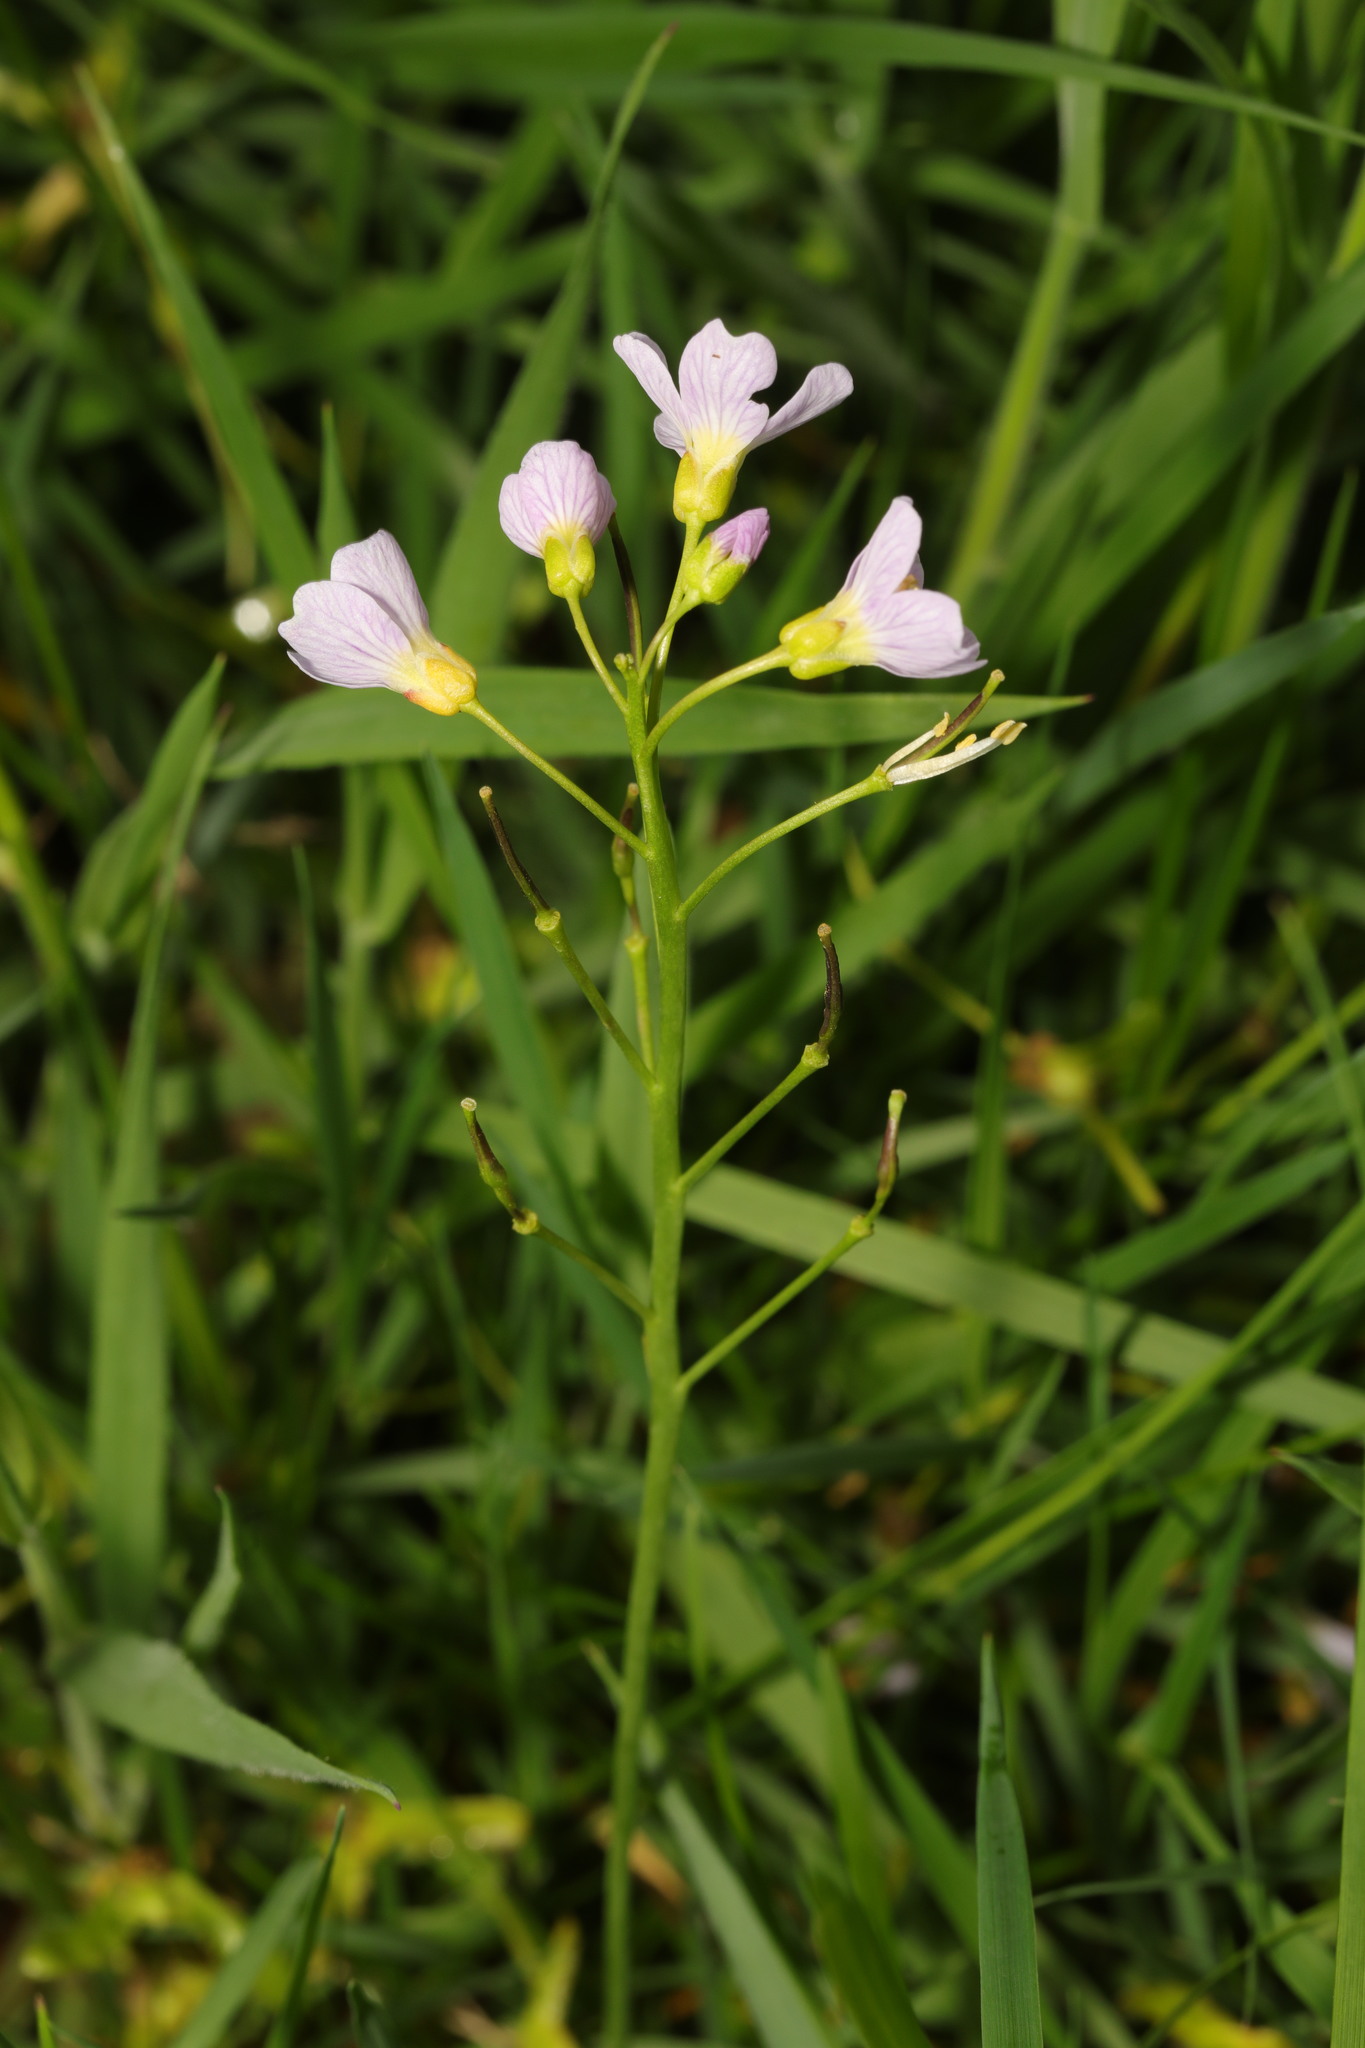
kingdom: Plantae
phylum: Tracheophyta
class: Magnoliopsida
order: Brassicales
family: Brassicaceae
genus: Cardamine
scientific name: Cardamine pratensis
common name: Cuckoo flower
